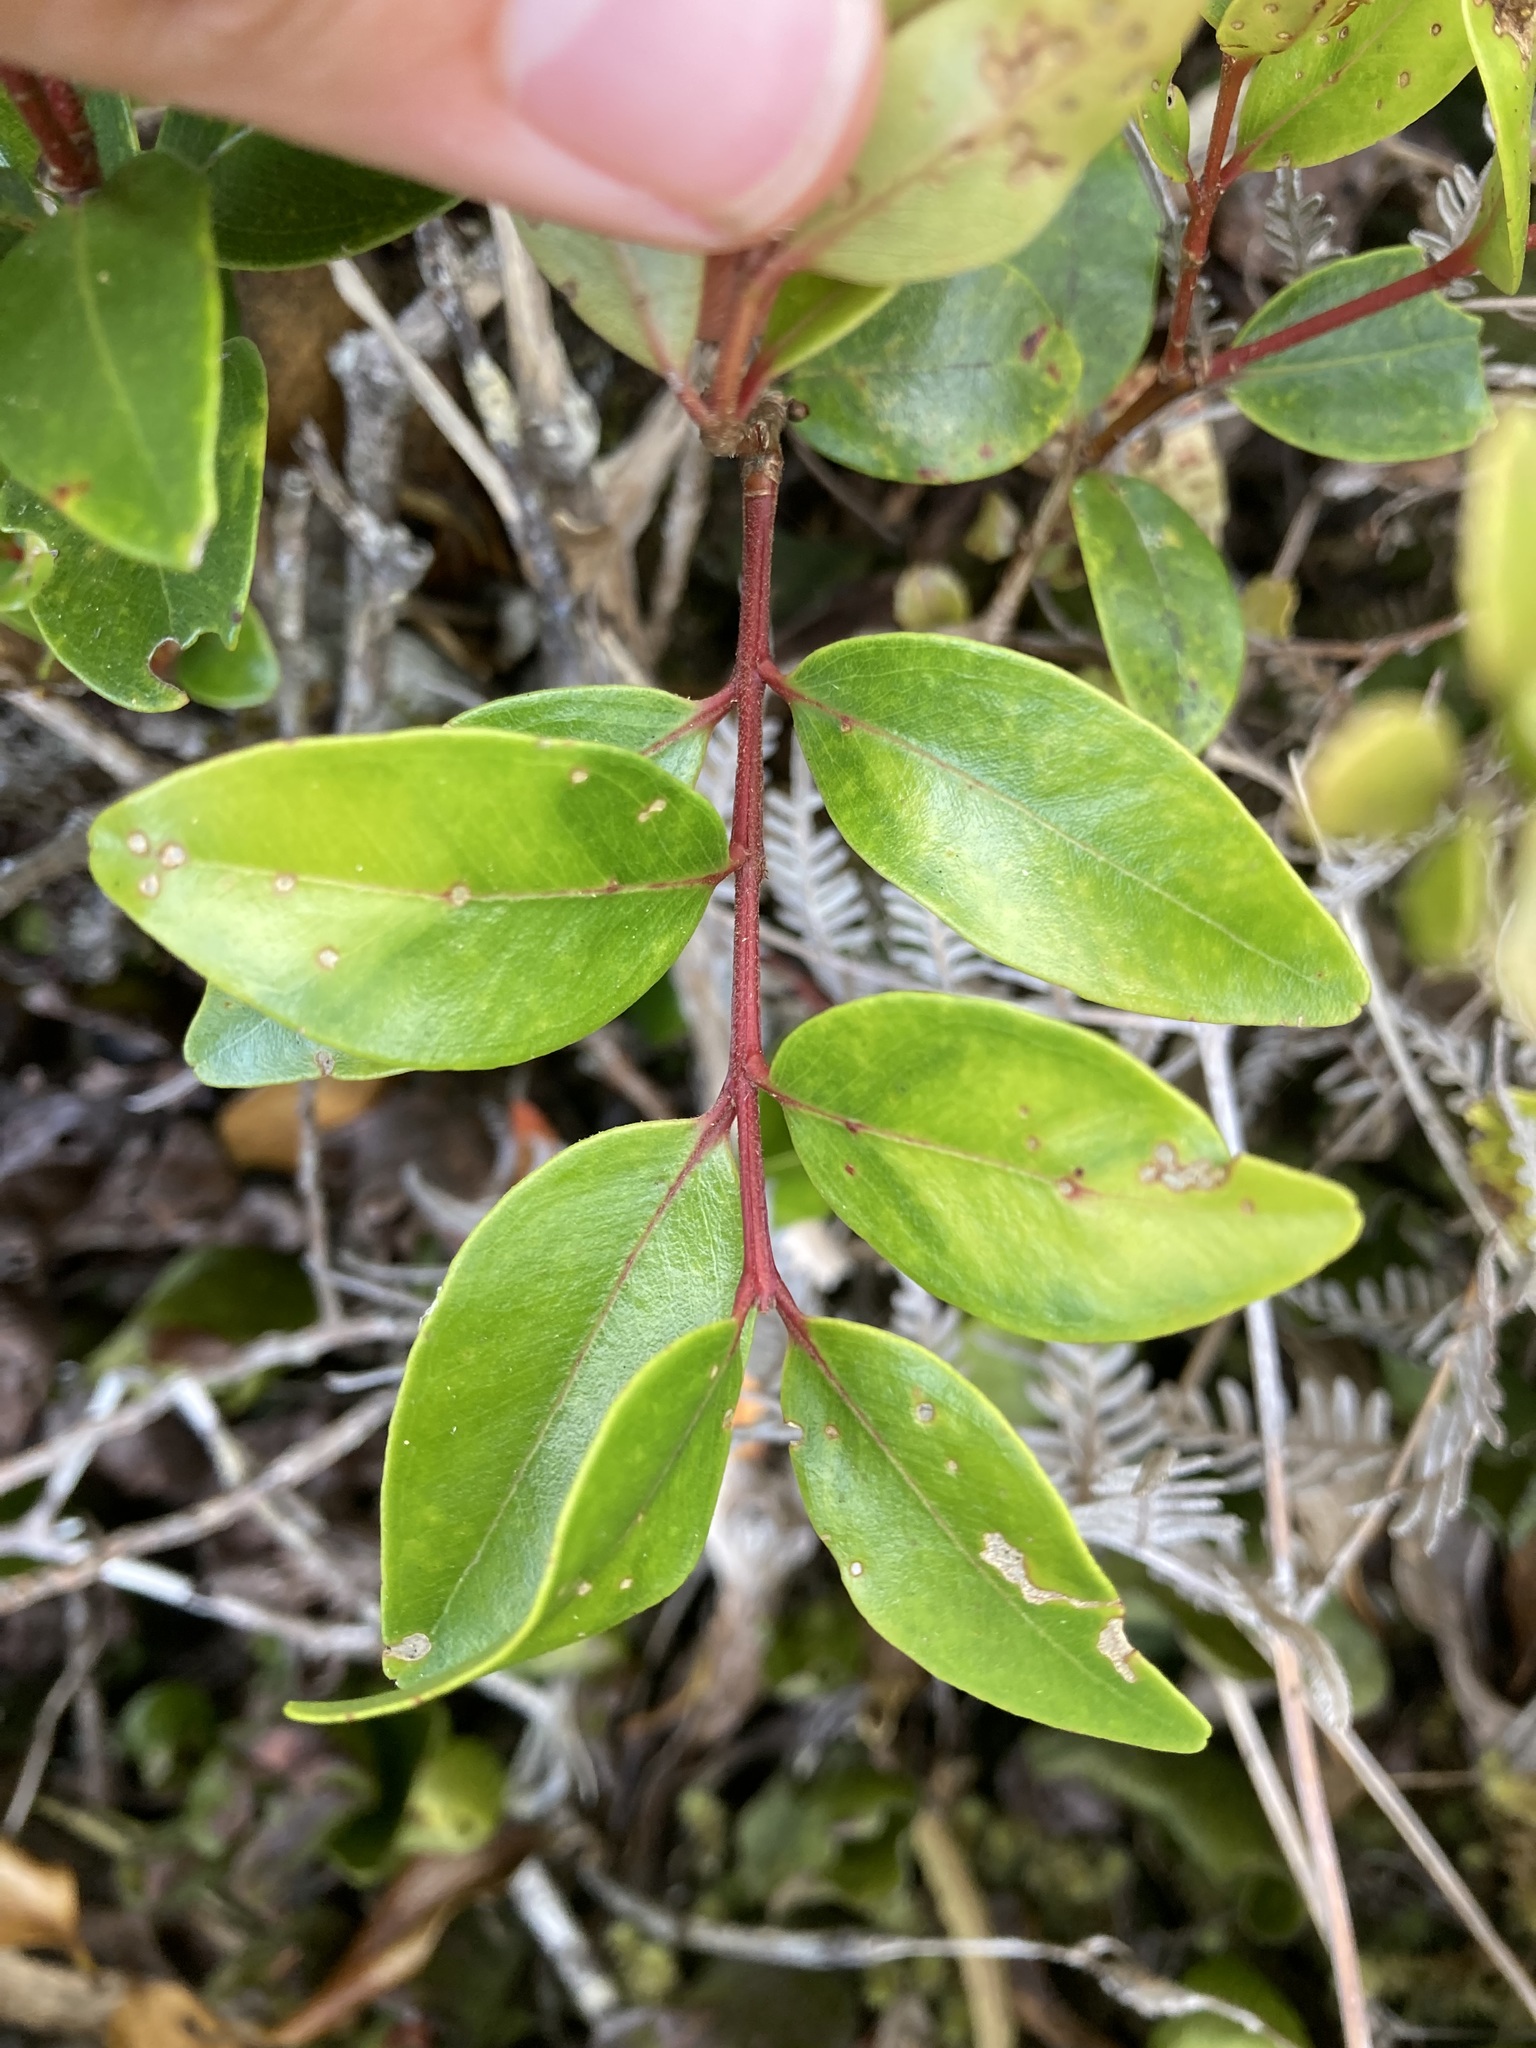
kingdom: Plantae
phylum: Tracheophyta
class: Magnoliopsida
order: Myrtales
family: Myrtaceae
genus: Metrosideros
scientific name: Metrosideros robusta
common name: Northern rata
